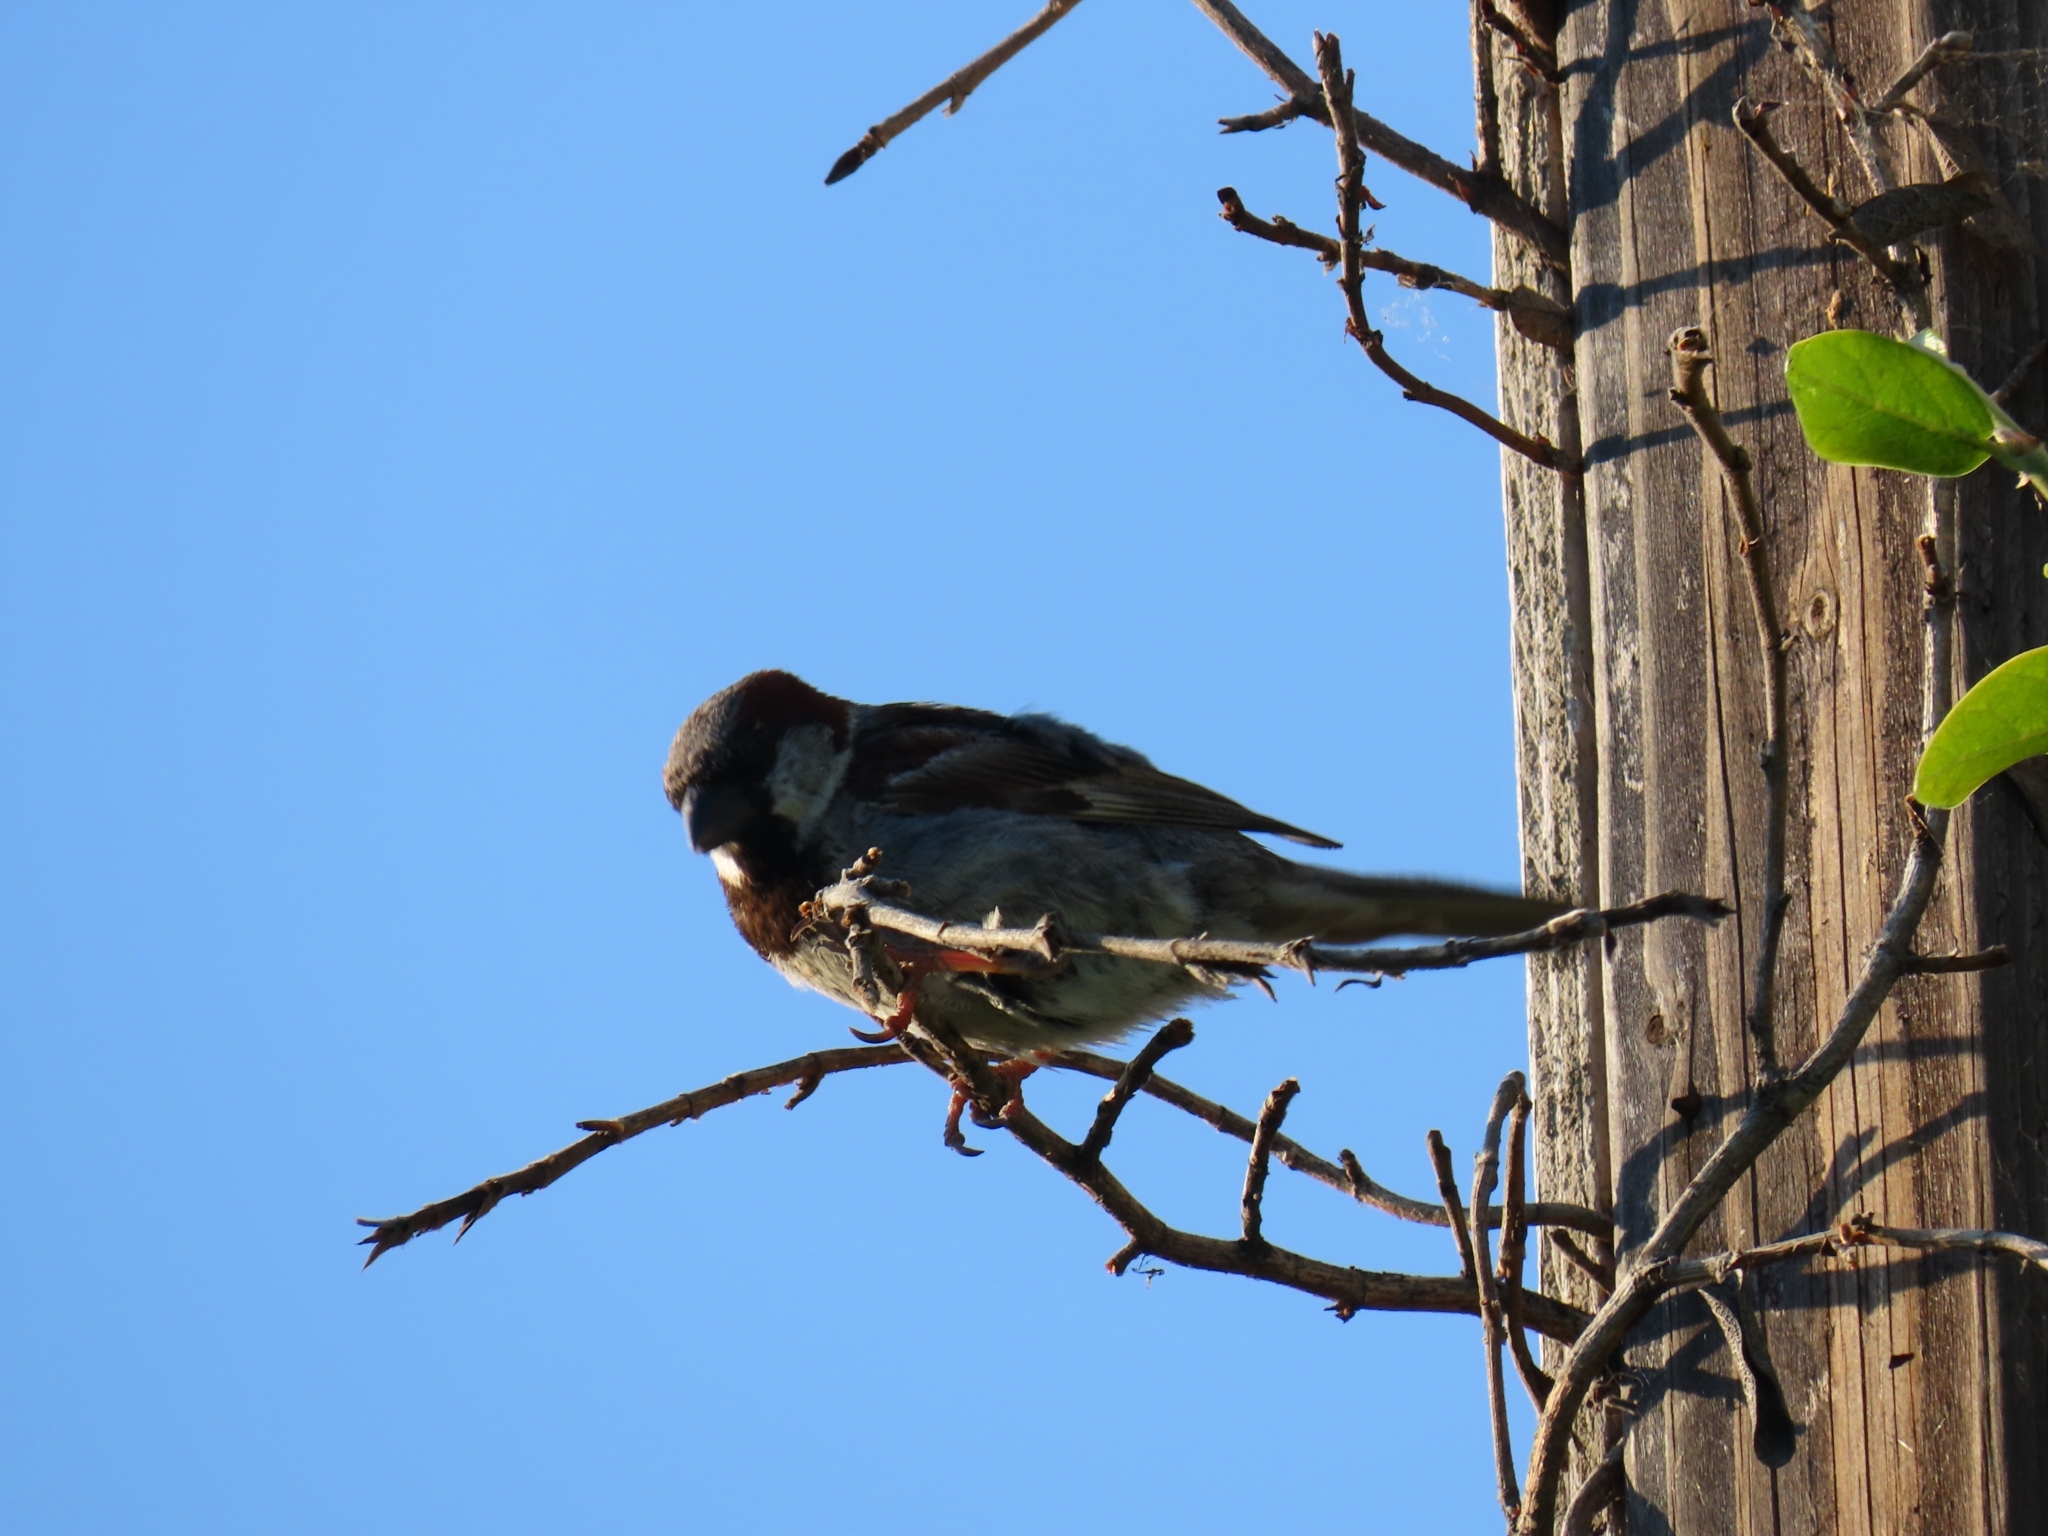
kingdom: Animalia
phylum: Chordata
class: Aves
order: Passeriformes
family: Passeridae
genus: Passer
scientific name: Passer domesticus
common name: House sparrow
